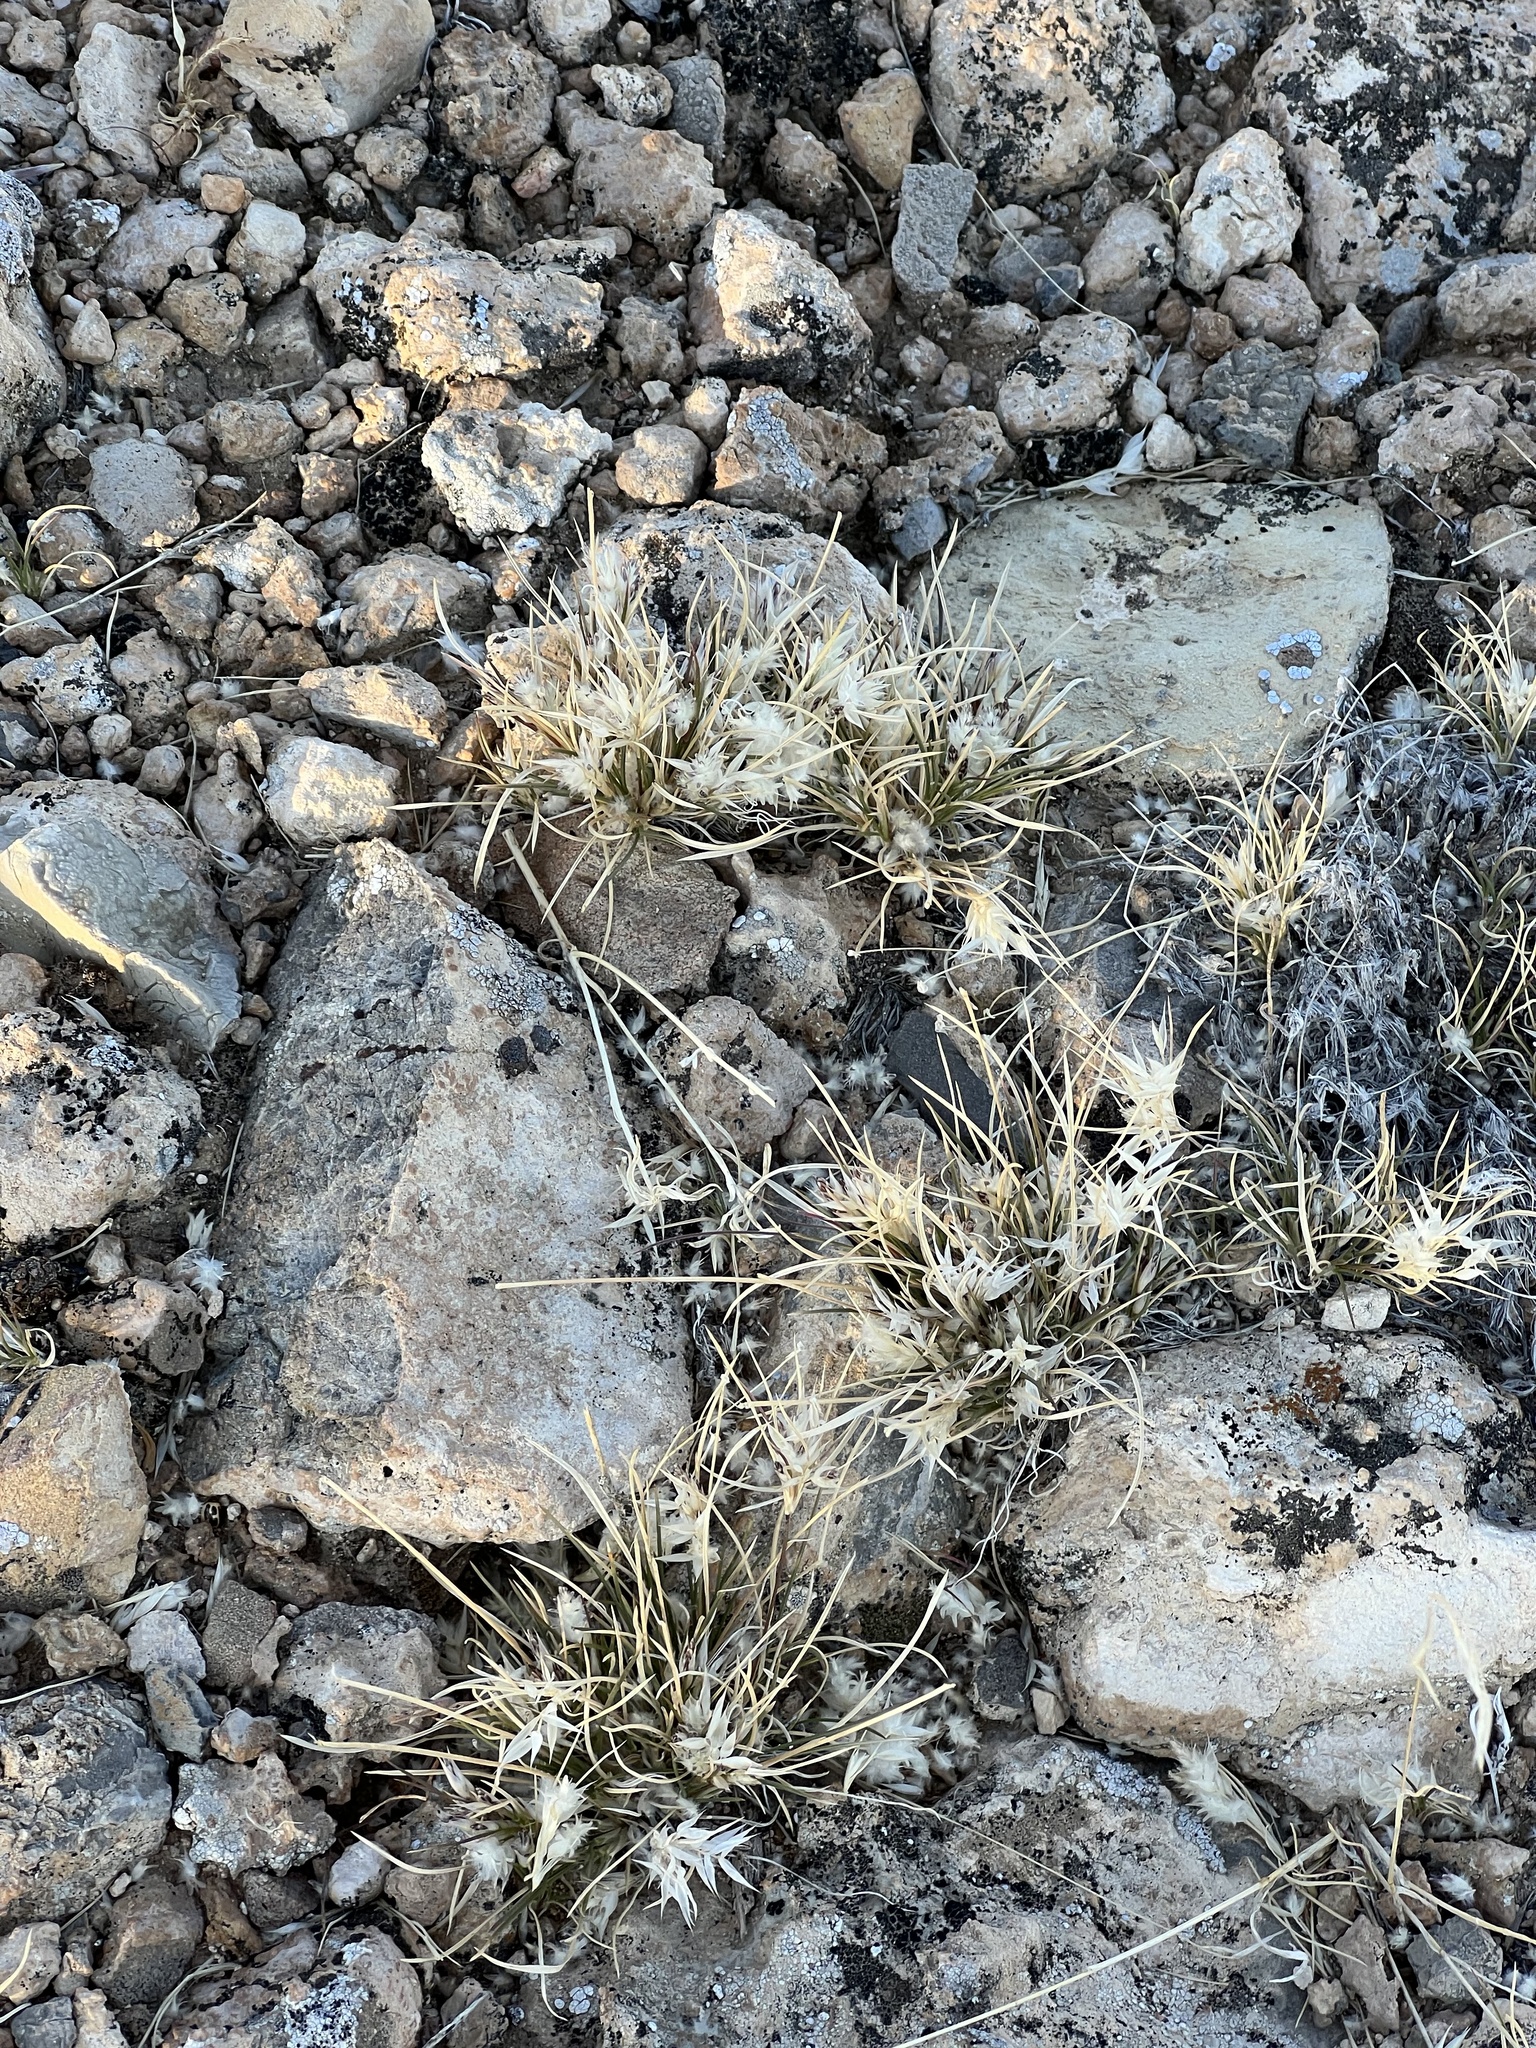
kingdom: Plantae
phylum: Tracheophyta
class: Liliopsida
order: Poales
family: Poaceae
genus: Dasyochloa
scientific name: Dasyochloa pulchella
